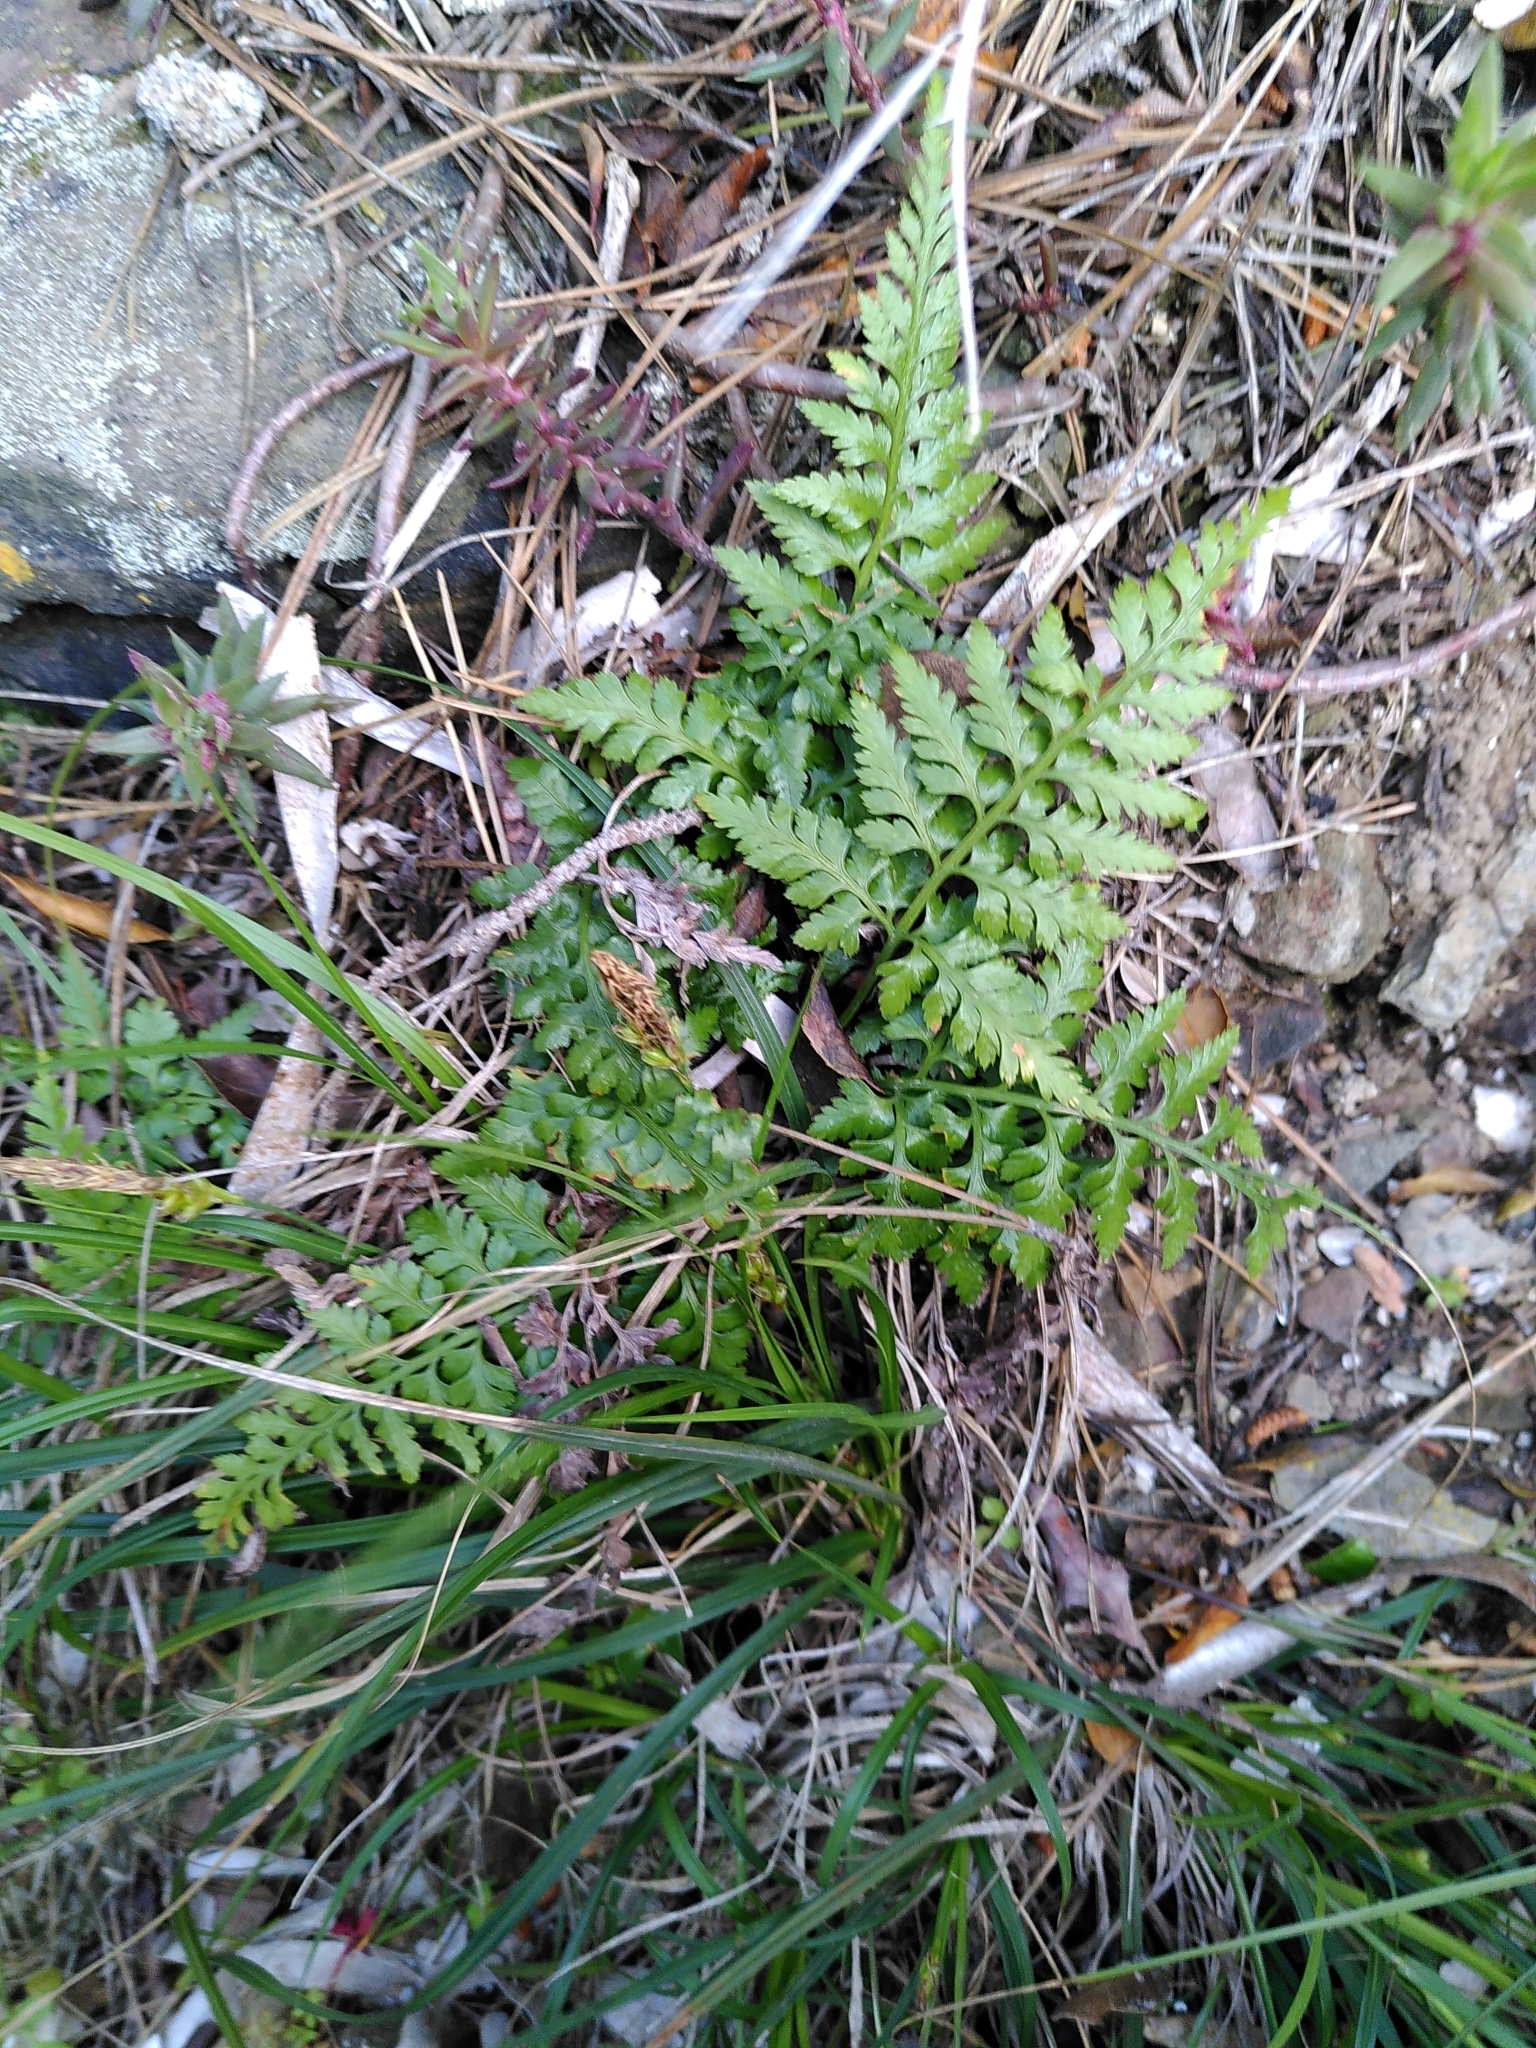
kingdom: Plantae
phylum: Tracheophyta
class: Polypodiopsida
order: Polypodiales
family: Aspleniaceae
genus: Asplenium
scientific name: Asplenium adiantum-nigrum
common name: Black spleenwort
